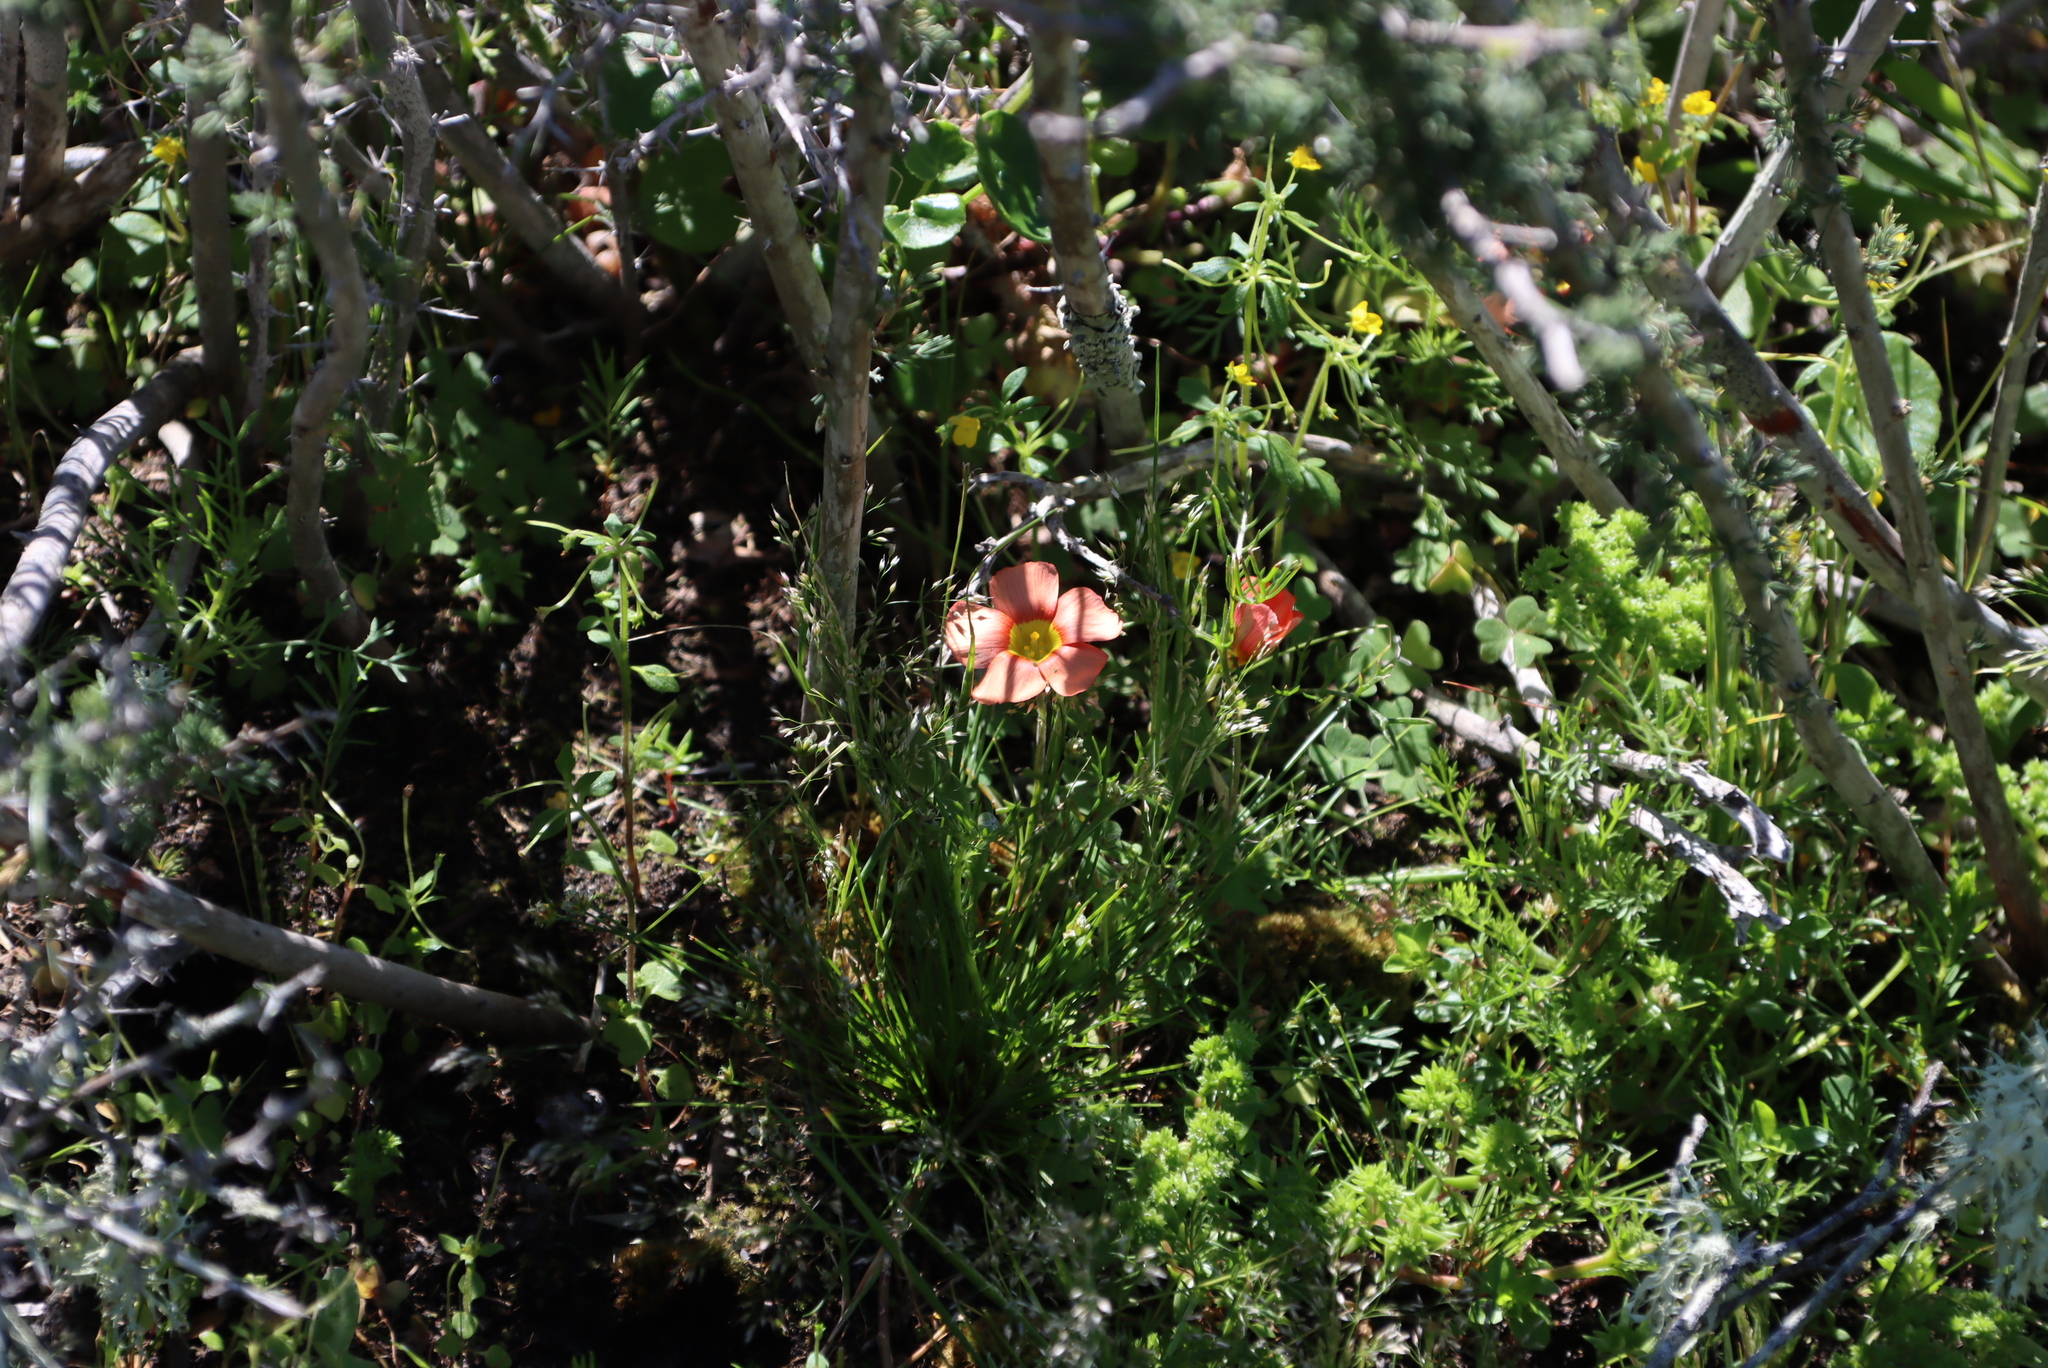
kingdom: Plantae
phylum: Tracheophyta
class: Magnoliopsida
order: Oxalidales
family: Oxalidaceae
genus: Oxalis
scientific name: Oxalis obtusa
